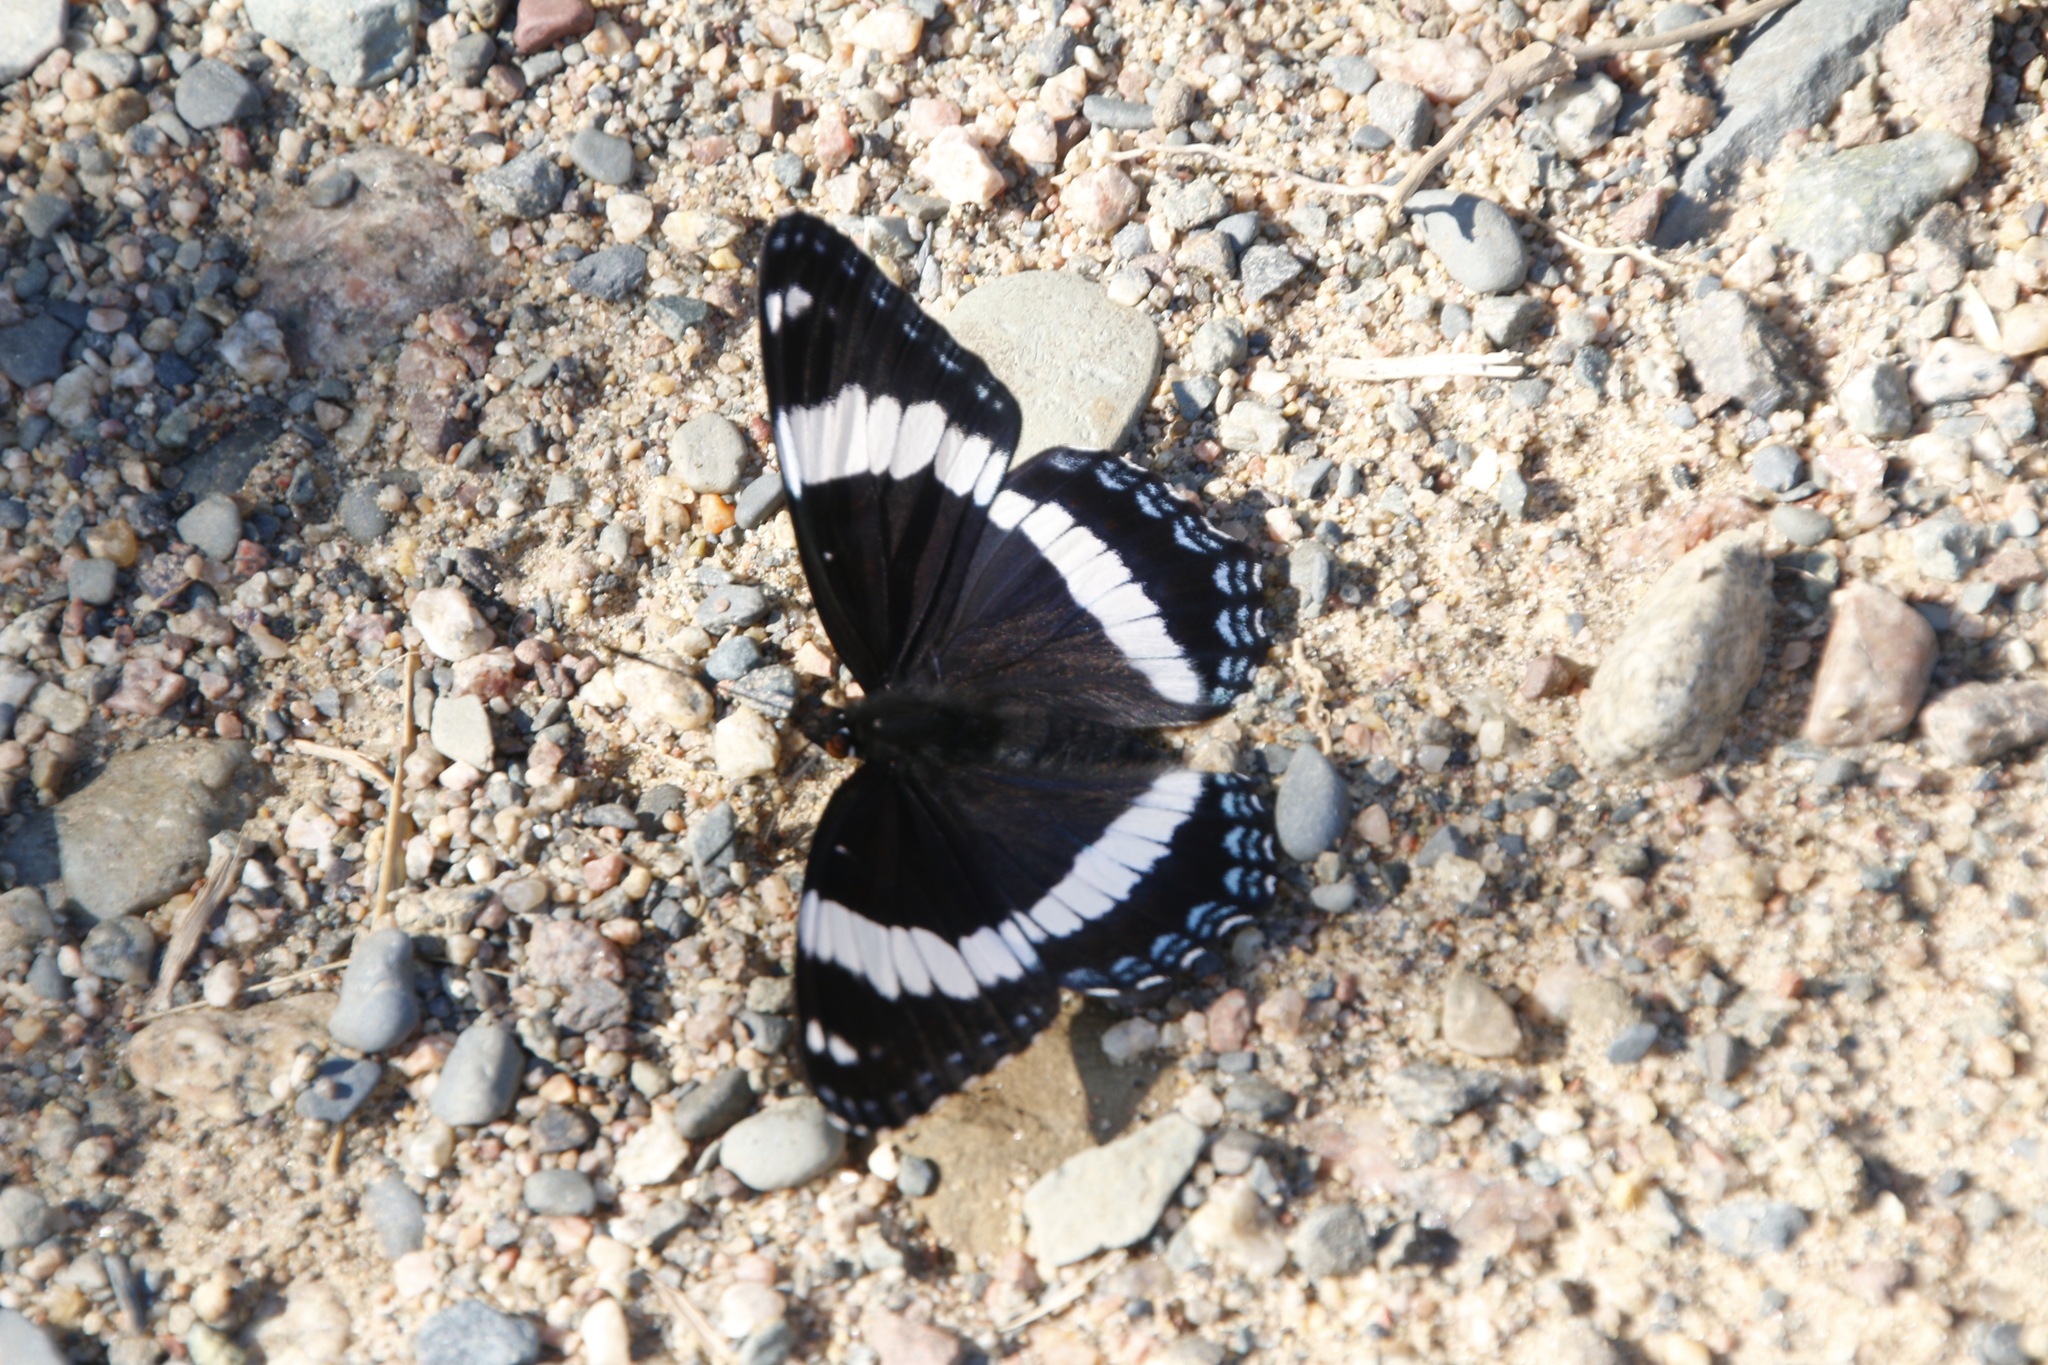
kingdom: Animalia
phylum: Arthropoda
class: Insecta
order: Lepidoptera
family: Nymphalidae
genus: Limenitis
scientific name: Limenitis arthemis
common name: Red-spotted admiral
